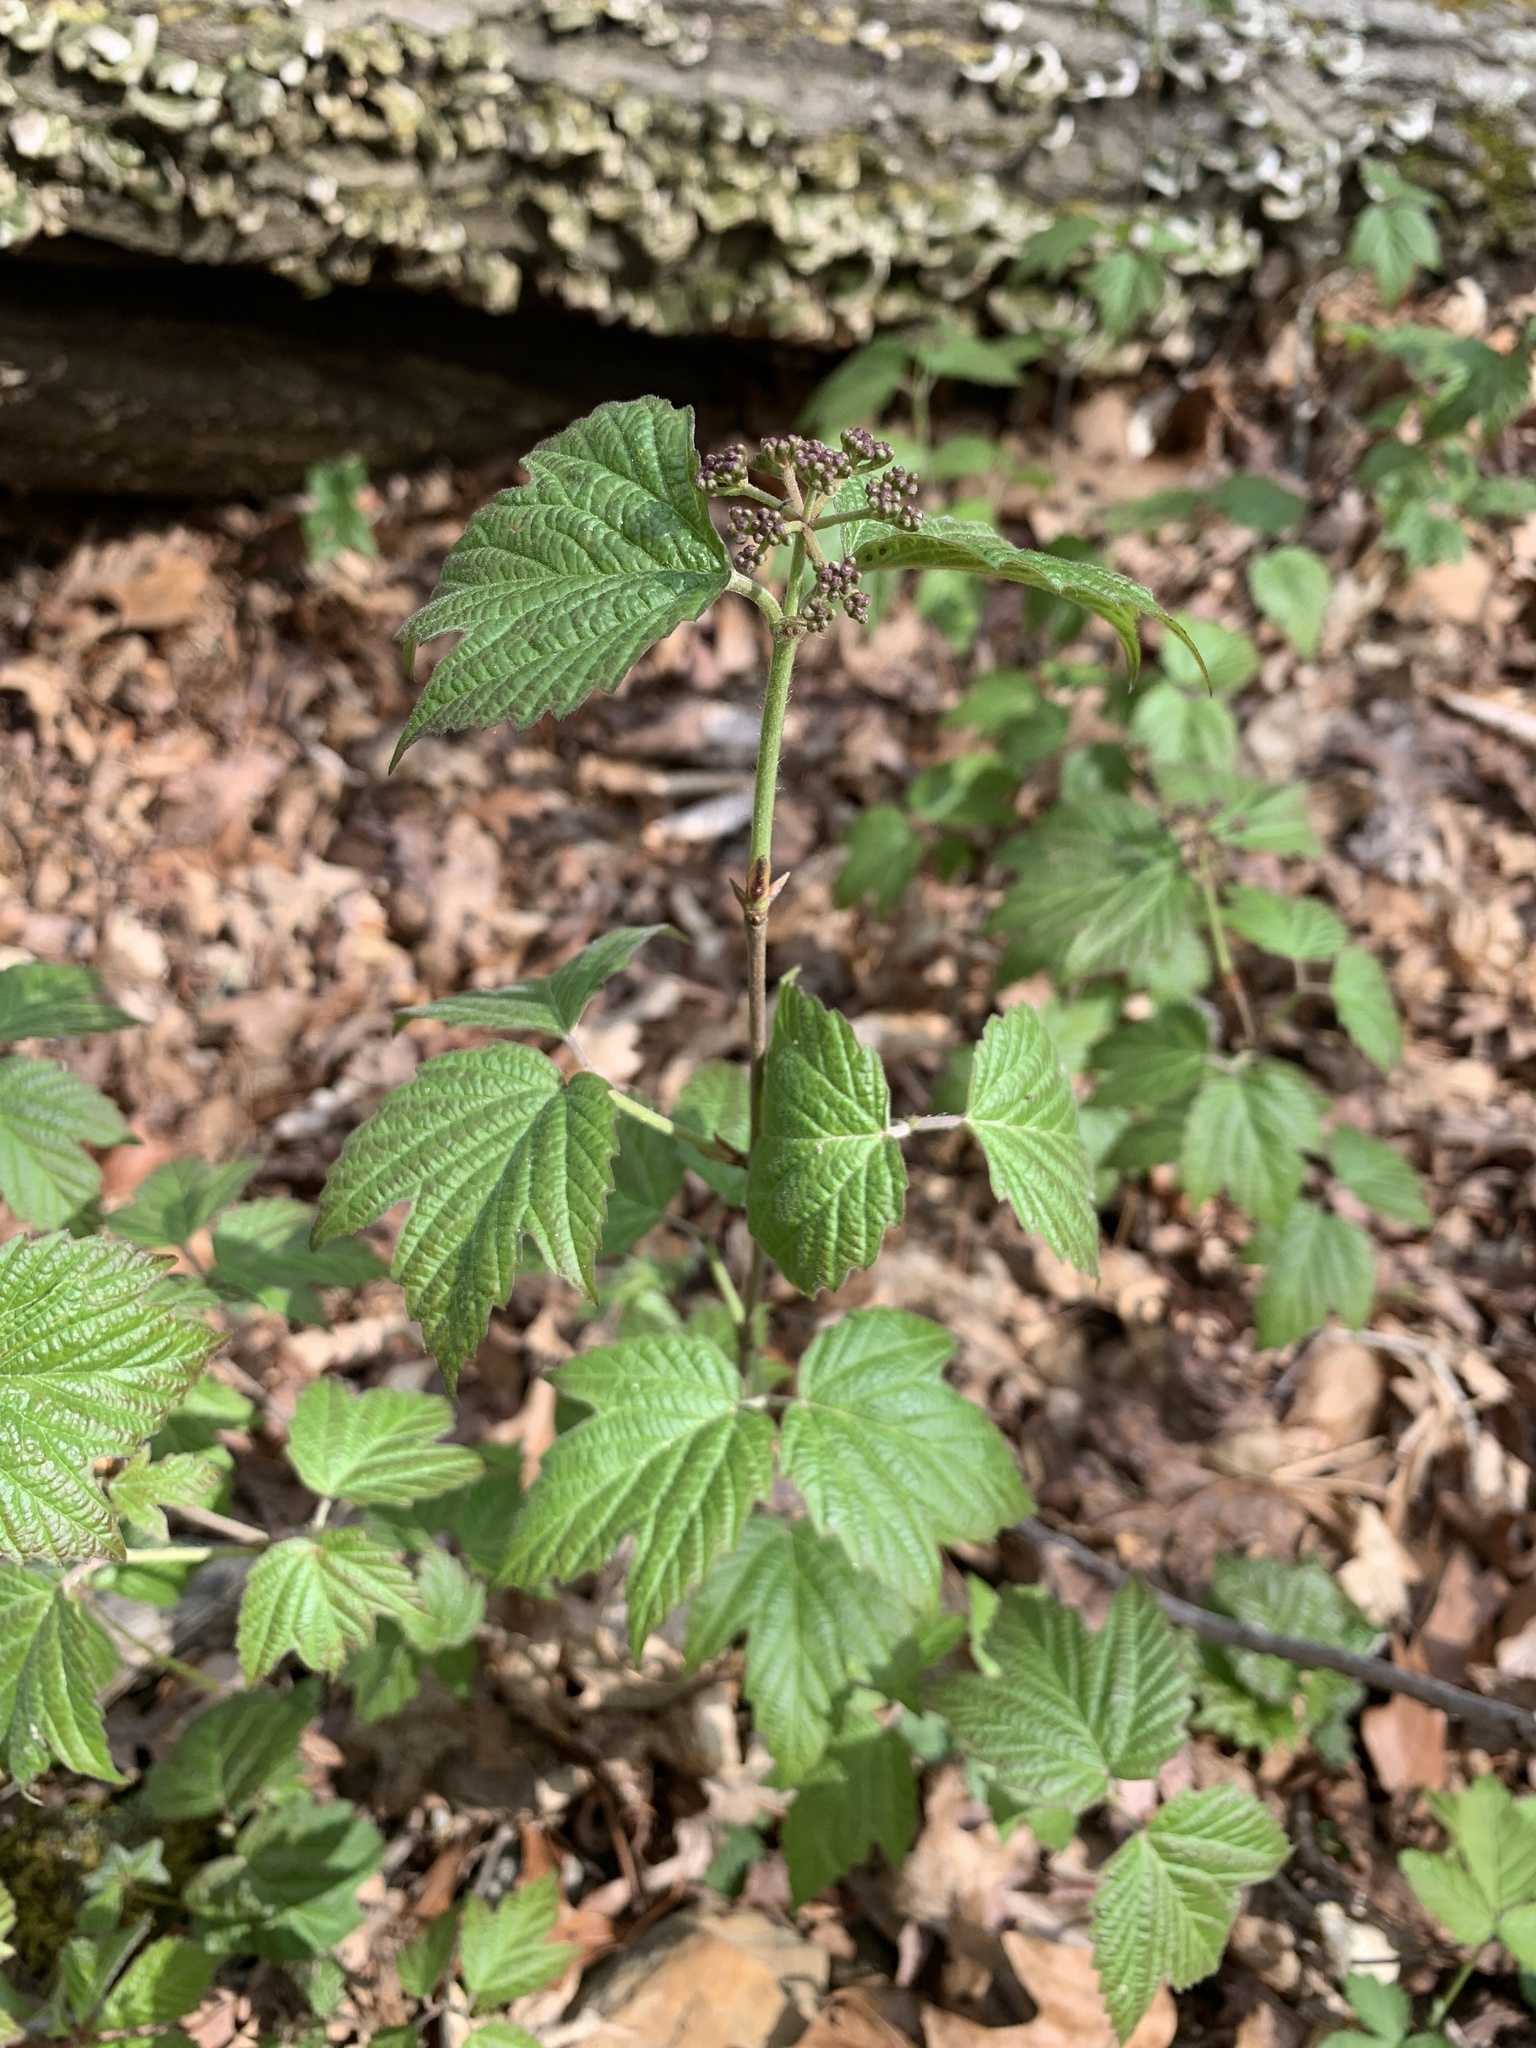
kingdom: Plantae
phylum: Tracheophyta
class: Magnoliopsida
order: Dipsacales
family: Viburnaceae
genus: Viburnum
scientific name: Viburnum acerifolium
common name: Dockmackie
